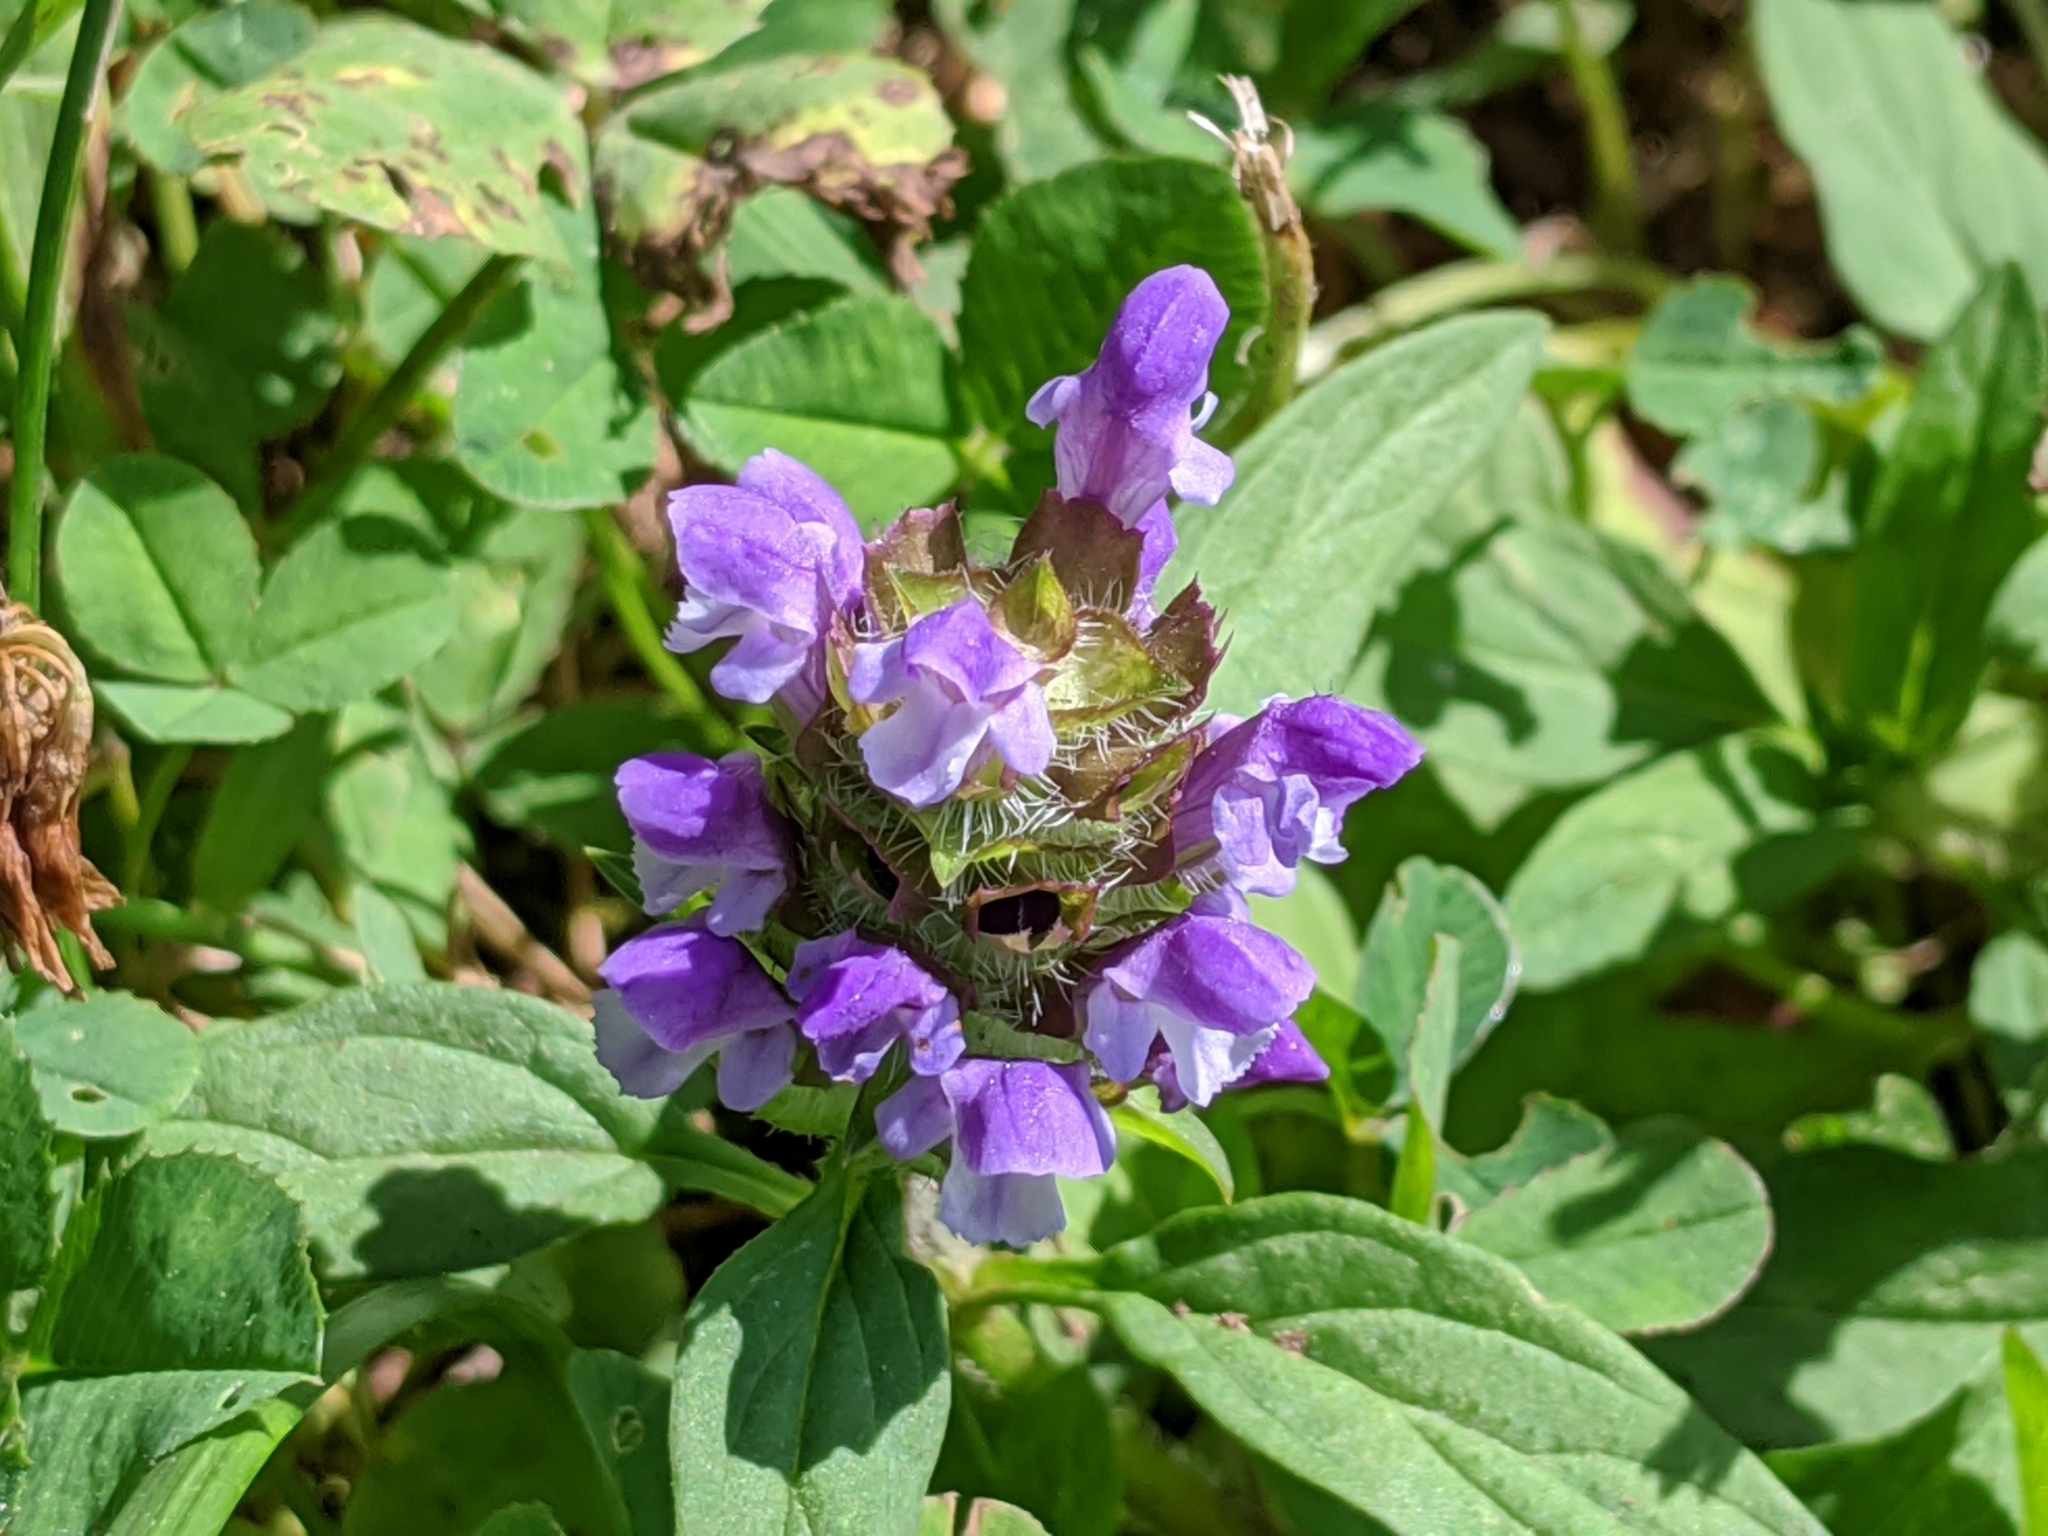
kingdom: Plantae
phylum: Tracheophyta
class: Magnoliopsida
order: Lamiales
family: Lamiaceae
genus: Prunella
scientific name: Prunella vulgaris
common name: Heal-all
